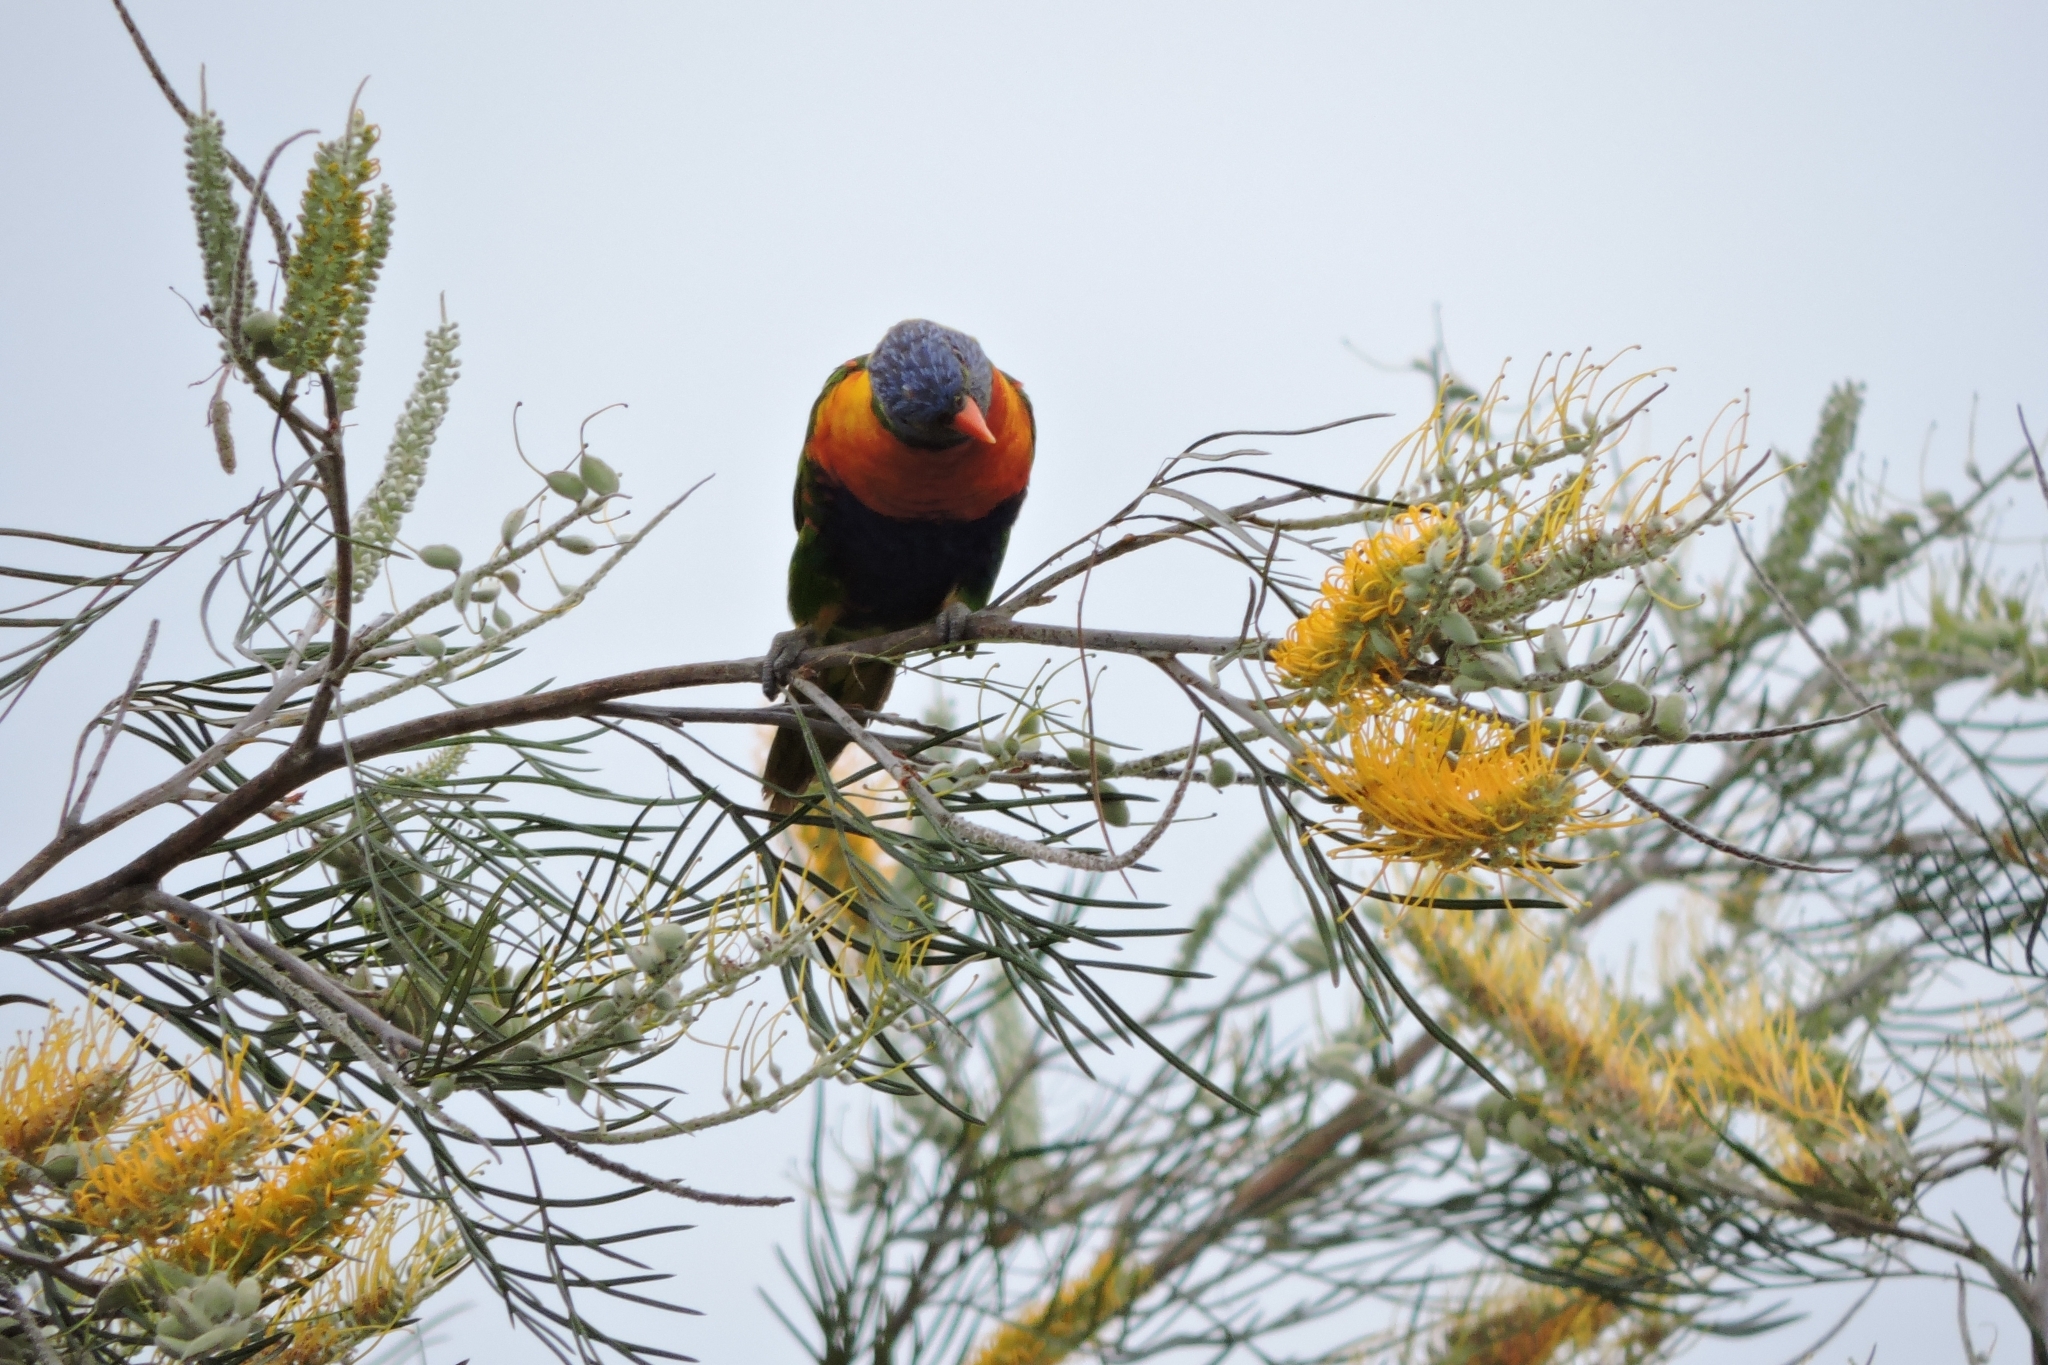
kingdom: Animalia
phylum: Chordata
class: Aves
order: Psittaciformes
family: Psittacidae
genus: Trichoglossus
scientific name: Trichoglossus haematodus
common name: Coconut lorikeet
